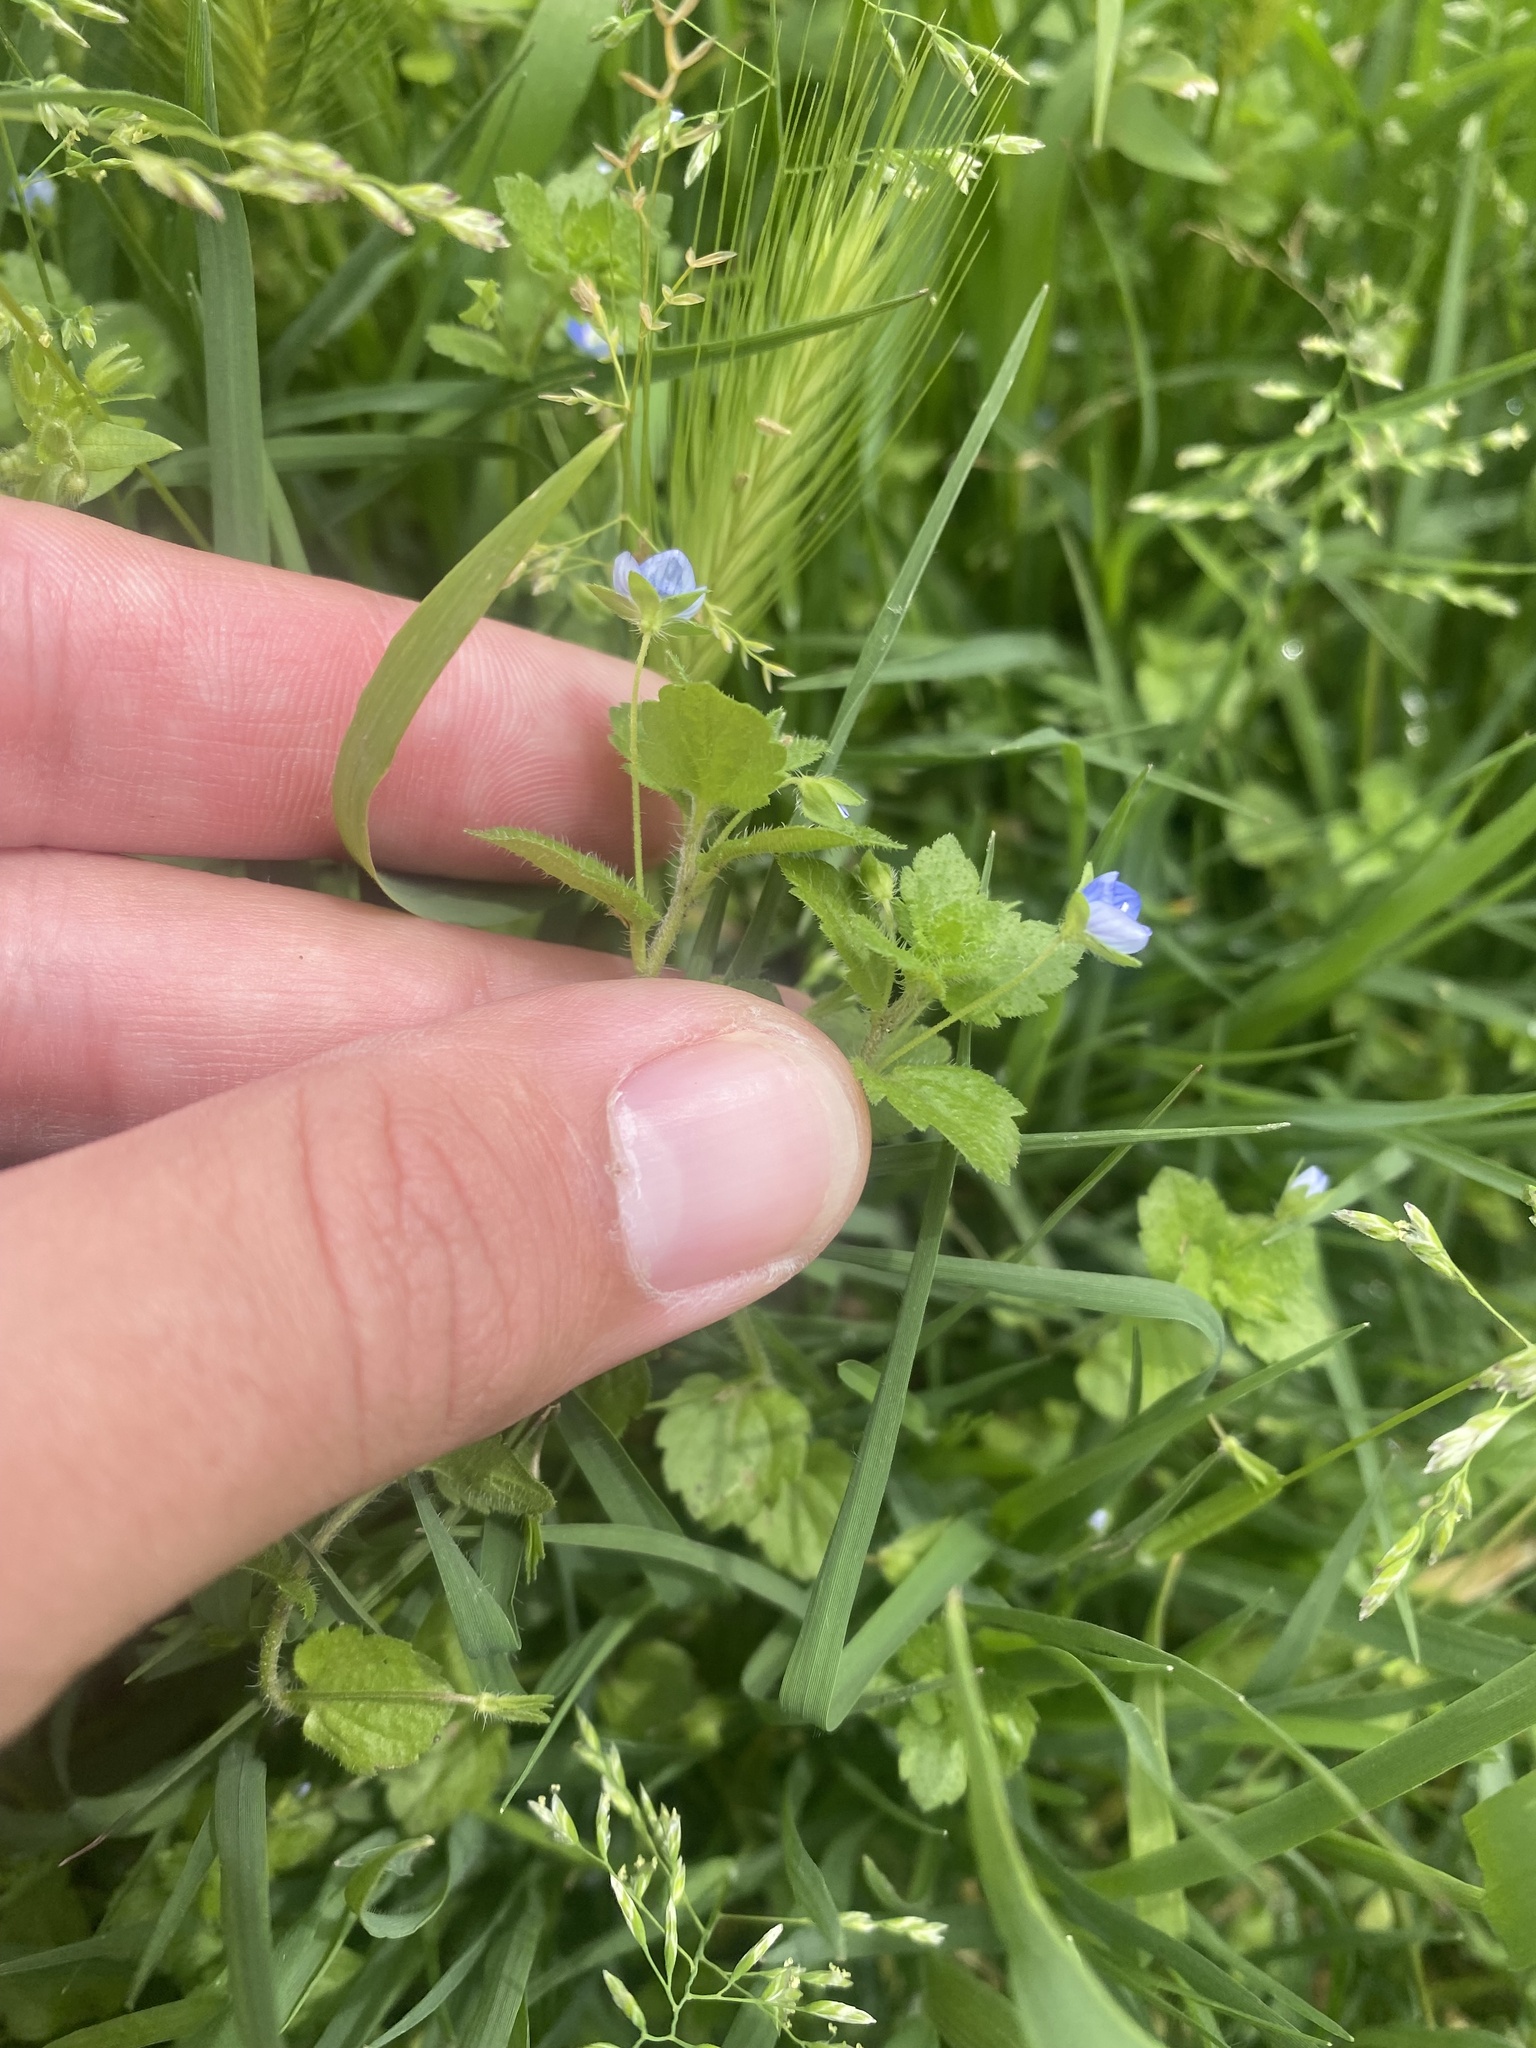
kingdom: Plantae
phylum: Tracheophyta
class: Magnoliopsida
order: Lamiales
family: Plantaginaceae
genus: Veronica
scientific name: Veronica persica
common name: Common field-speedwell
